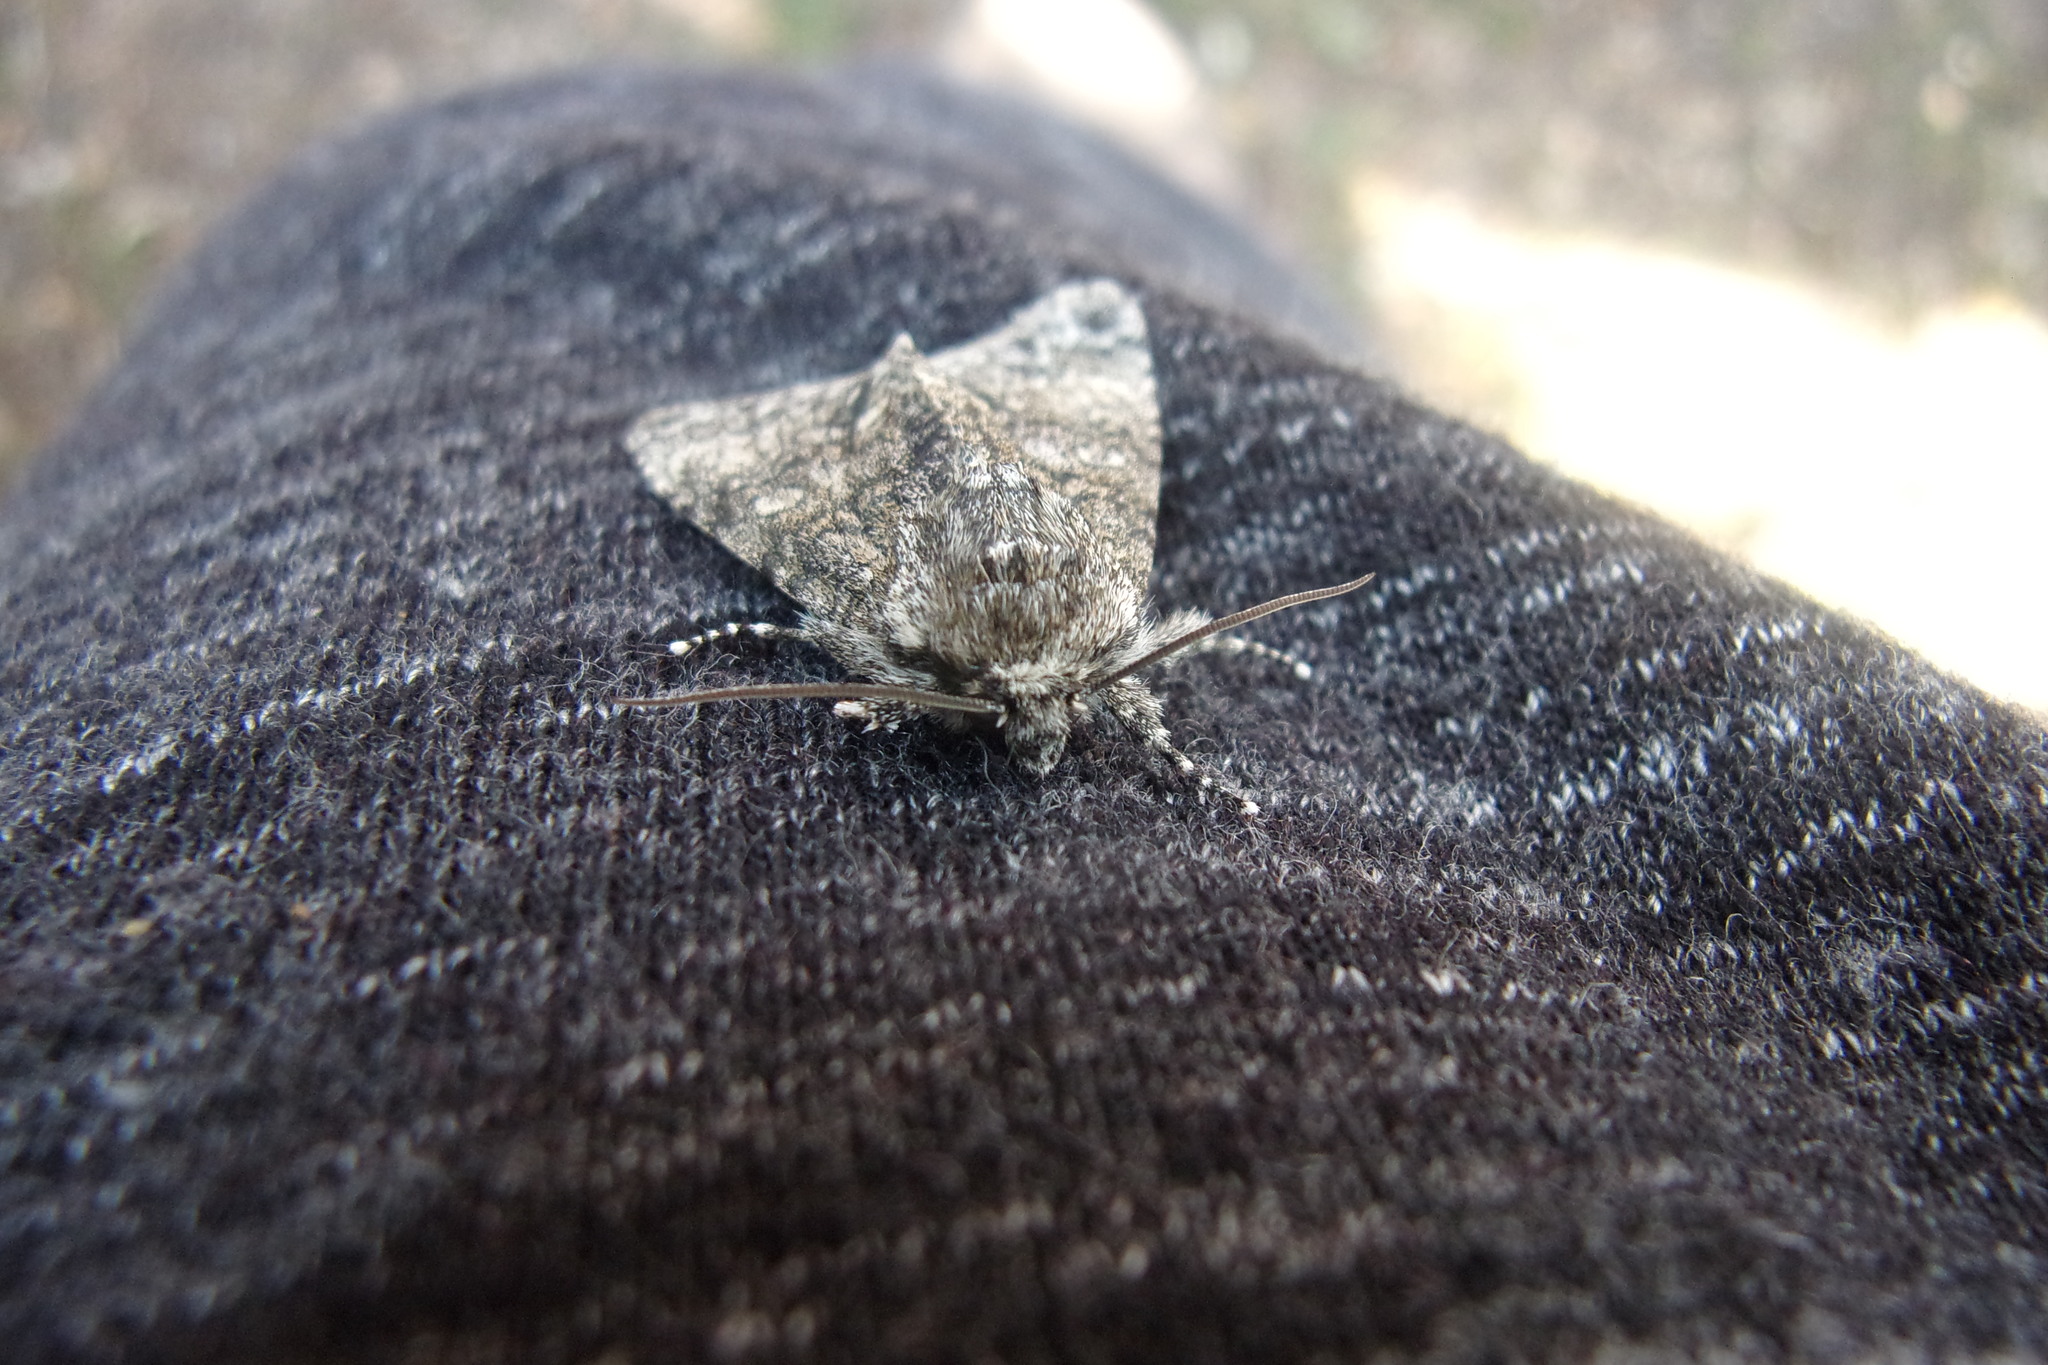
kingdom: Animalia
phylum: Arthropoda
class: Insecta
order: Lepidoptera
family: Noctuidae
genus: Acronicta
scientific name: Acronicta megacephala
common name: Poplar grey
